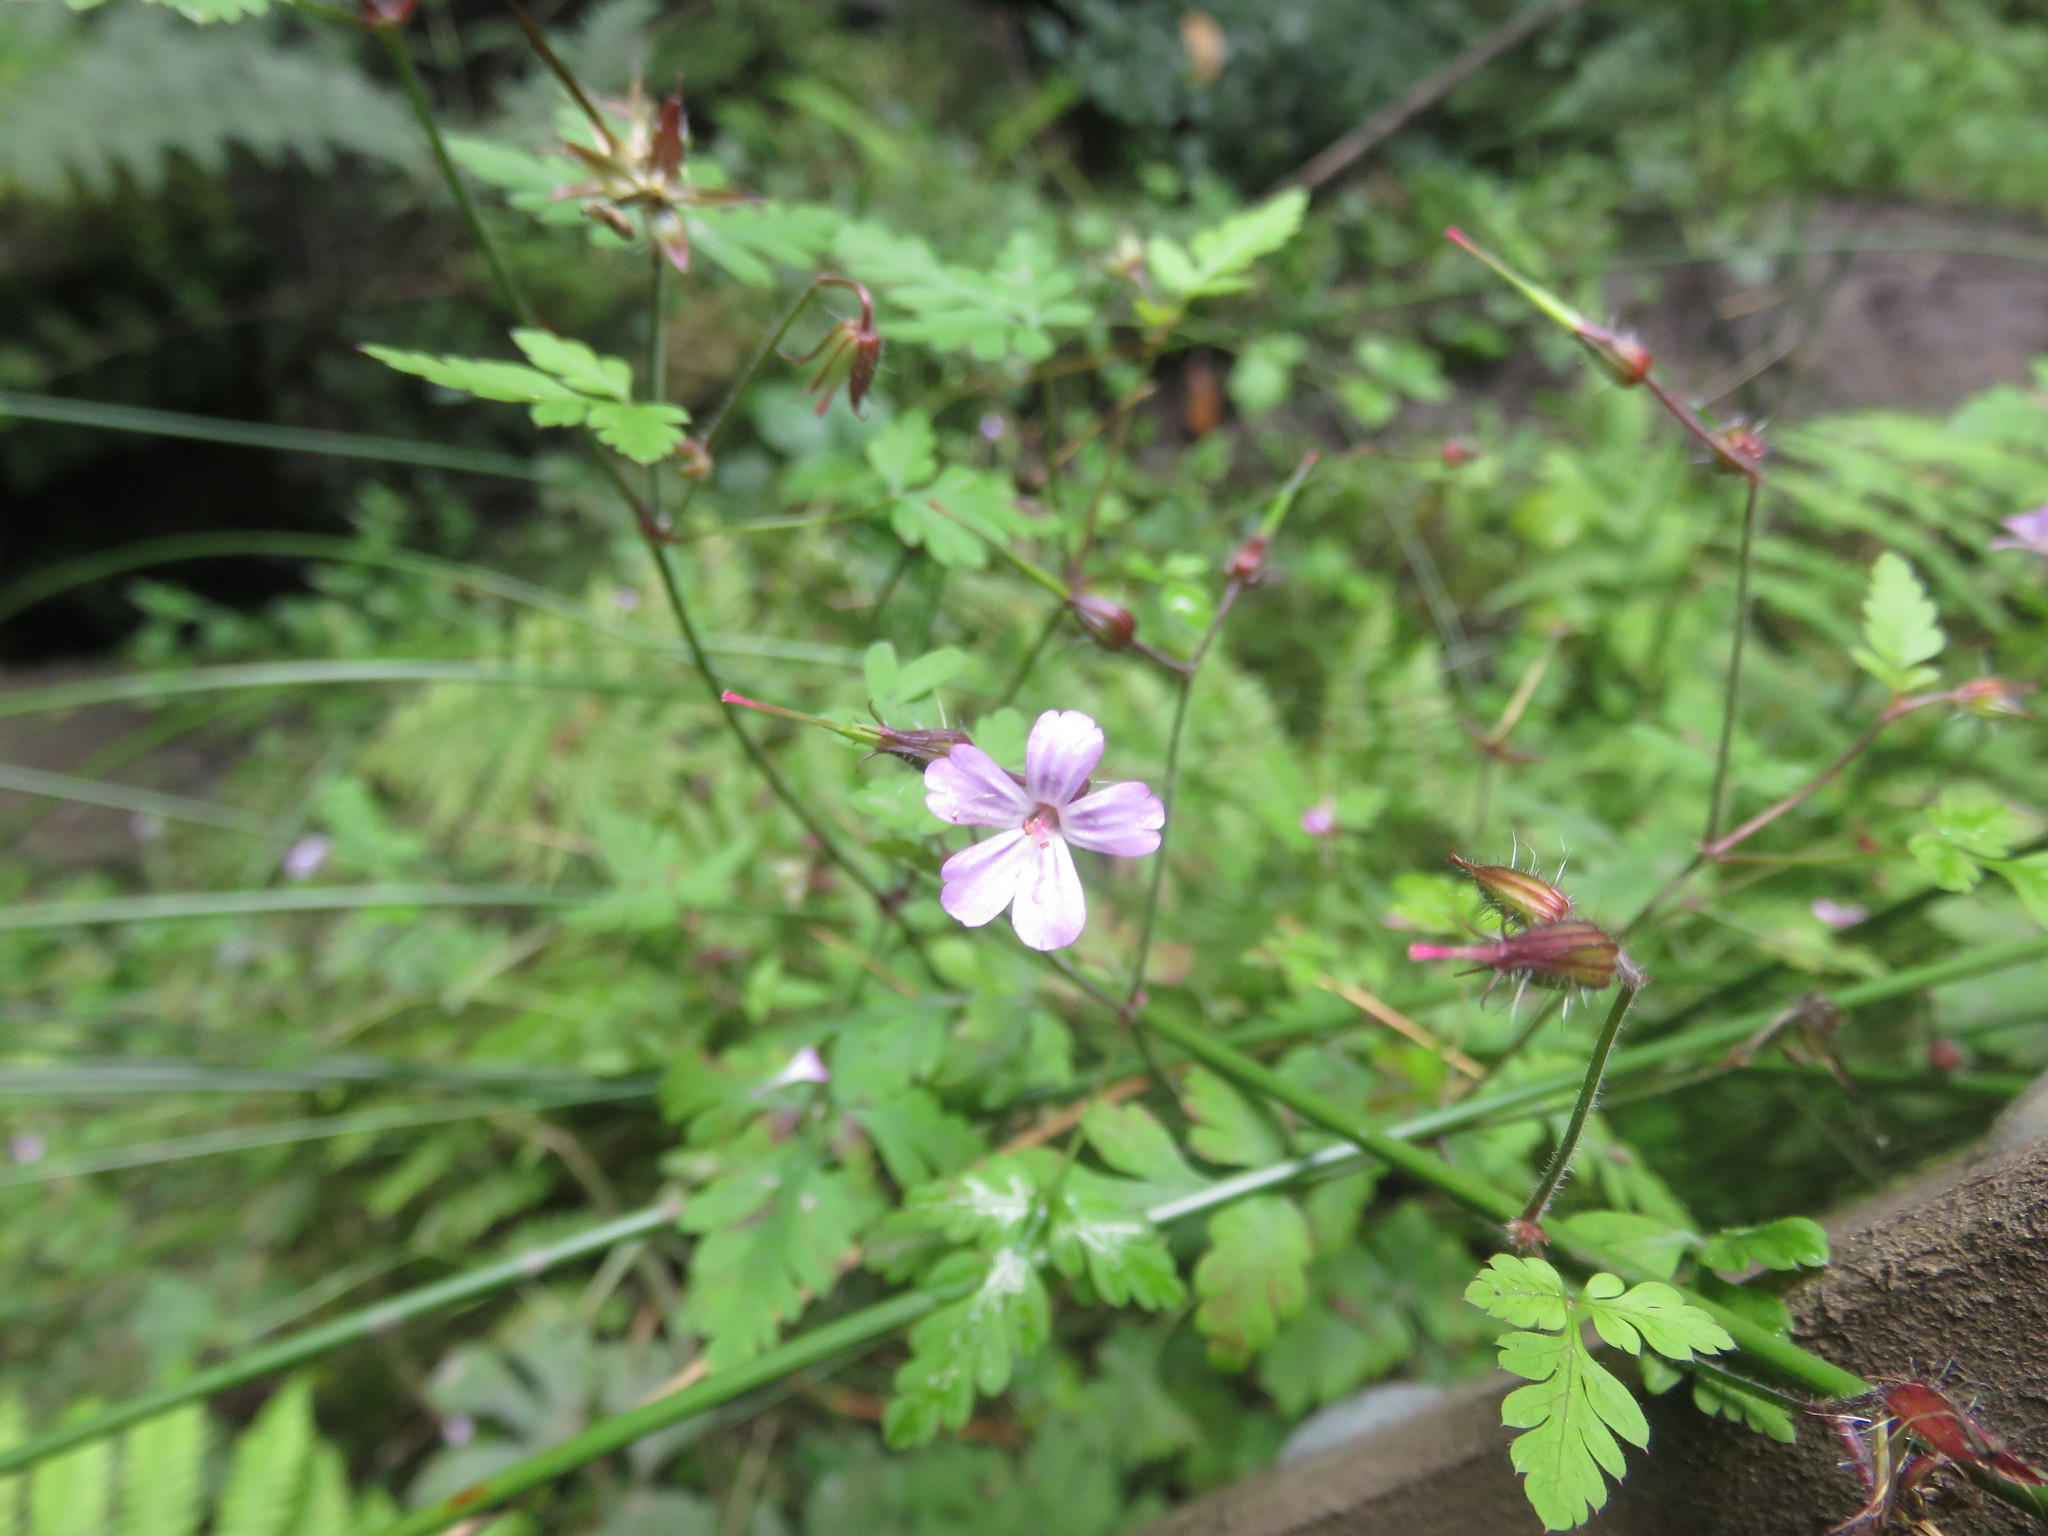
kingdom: Plantae
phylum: Tracheophyta
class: Magnoliopsida
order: Geraniales
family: Geraniaceae
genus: Geranium
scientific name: Geranium robertianum
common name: Herb-robert
